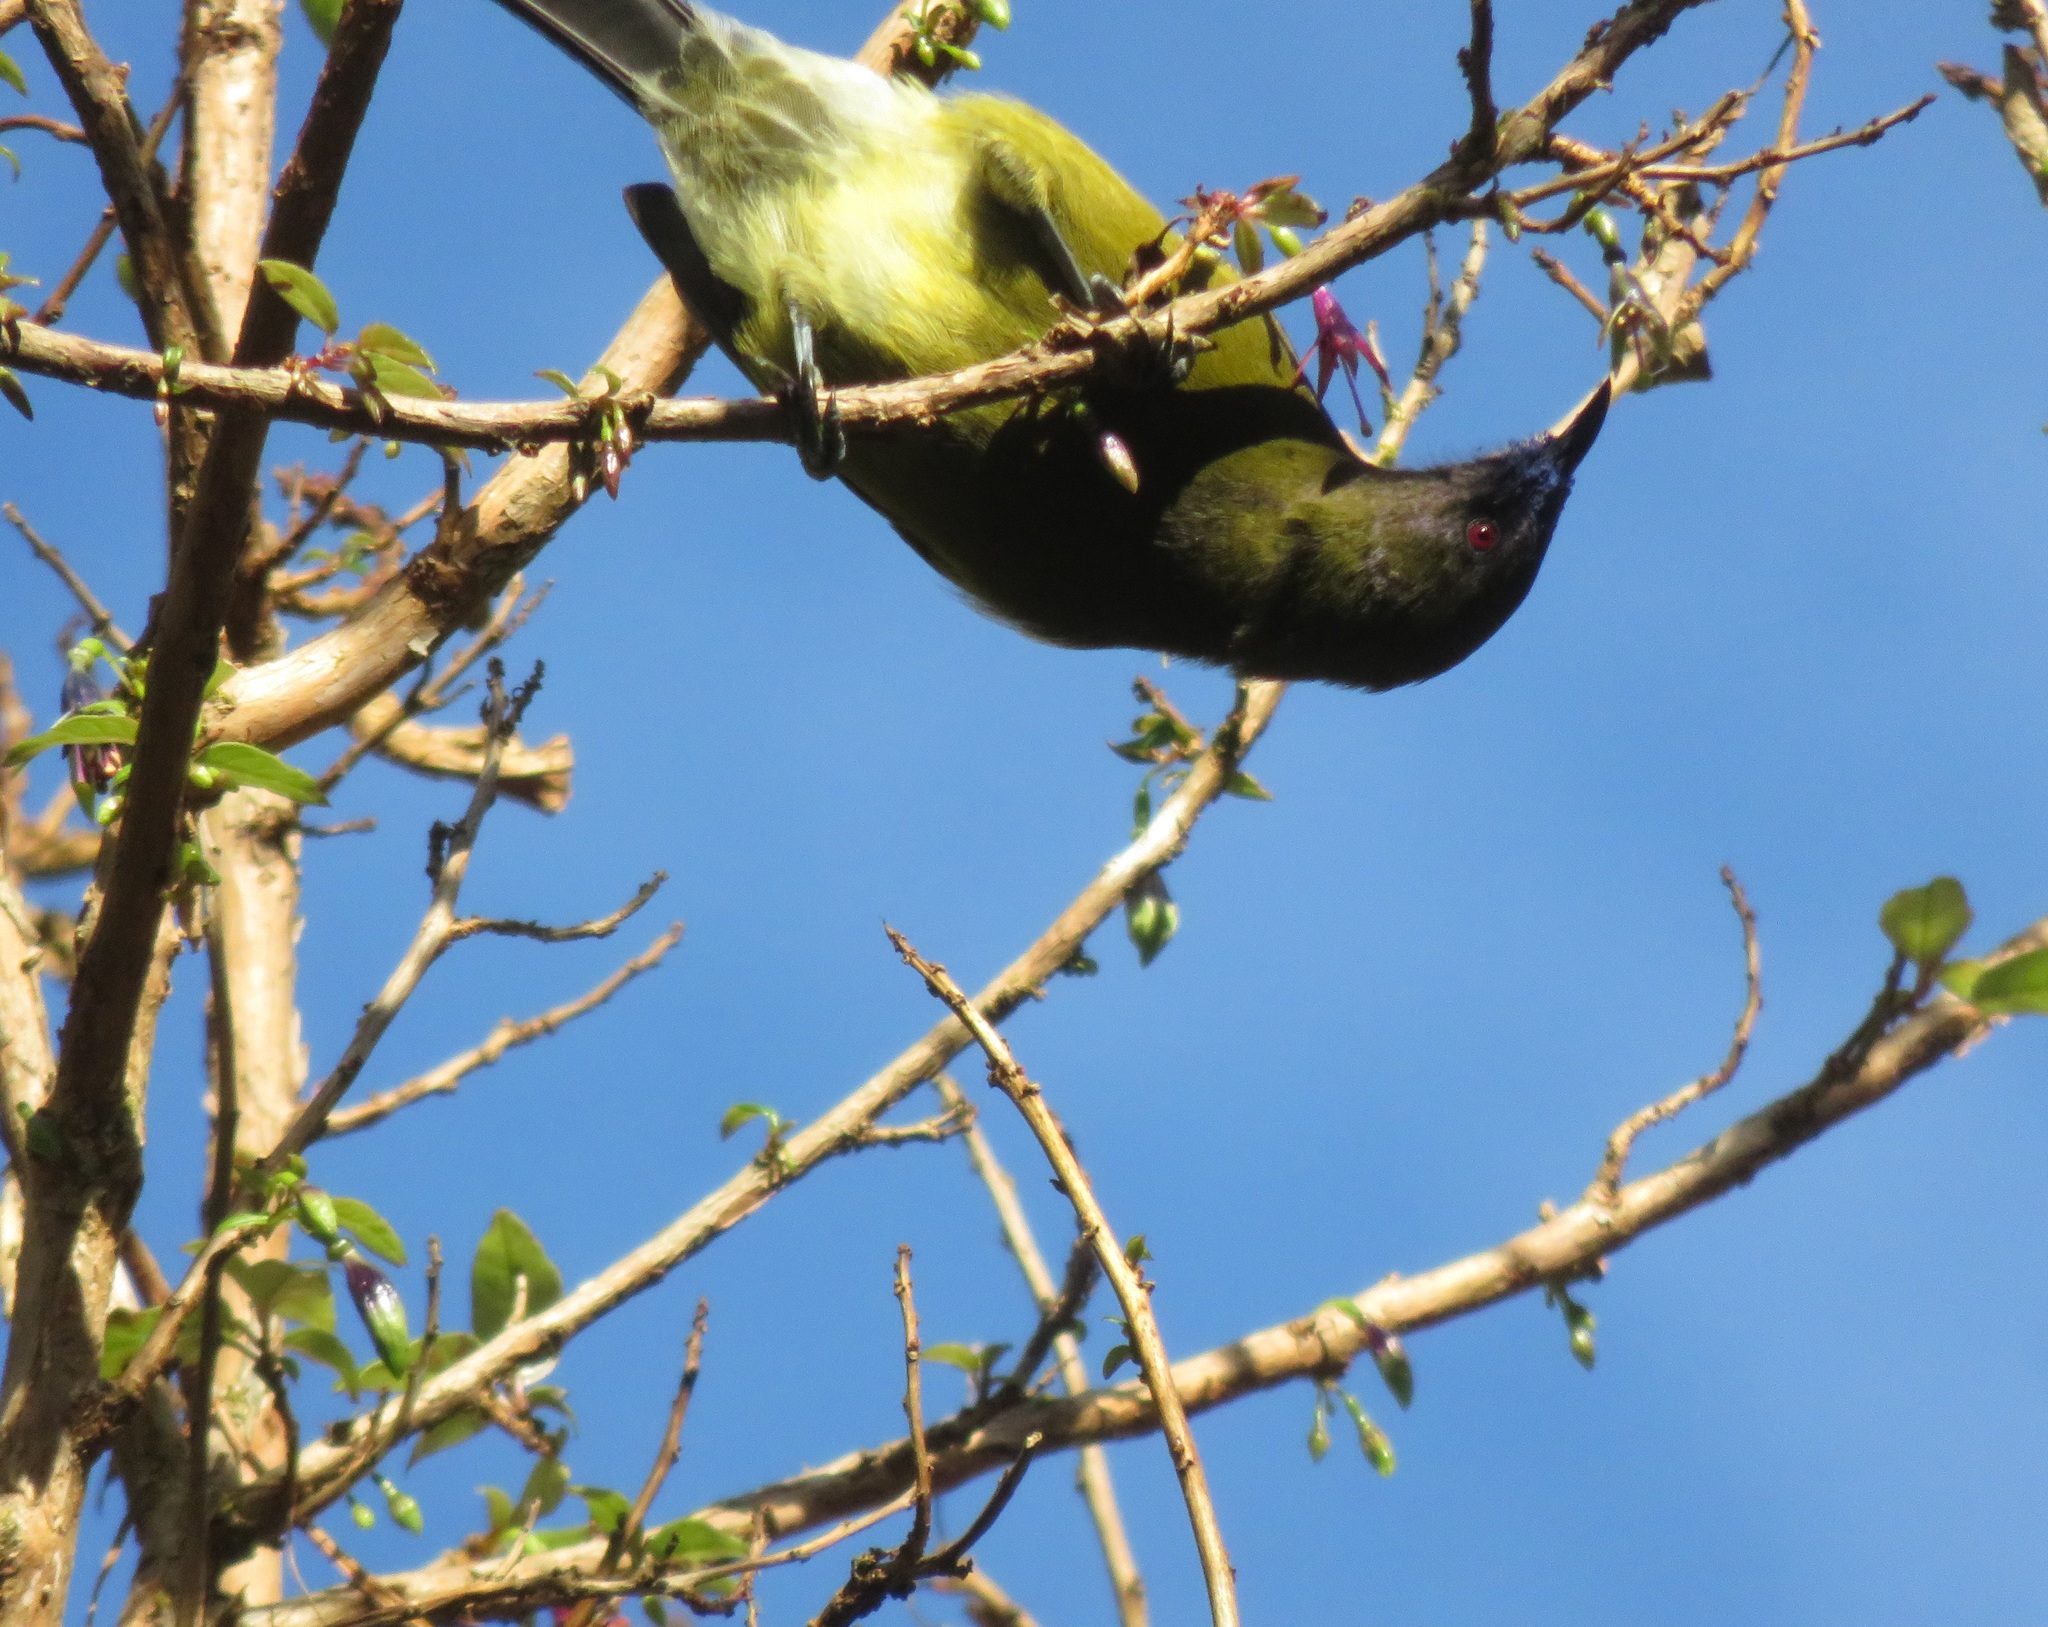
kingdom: Animalia
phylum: Chordata
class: Aves
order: Passeriformes
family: Meliphagidae
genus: Anthornis
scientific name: Anthornis melanura
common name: New zealand bellbird
